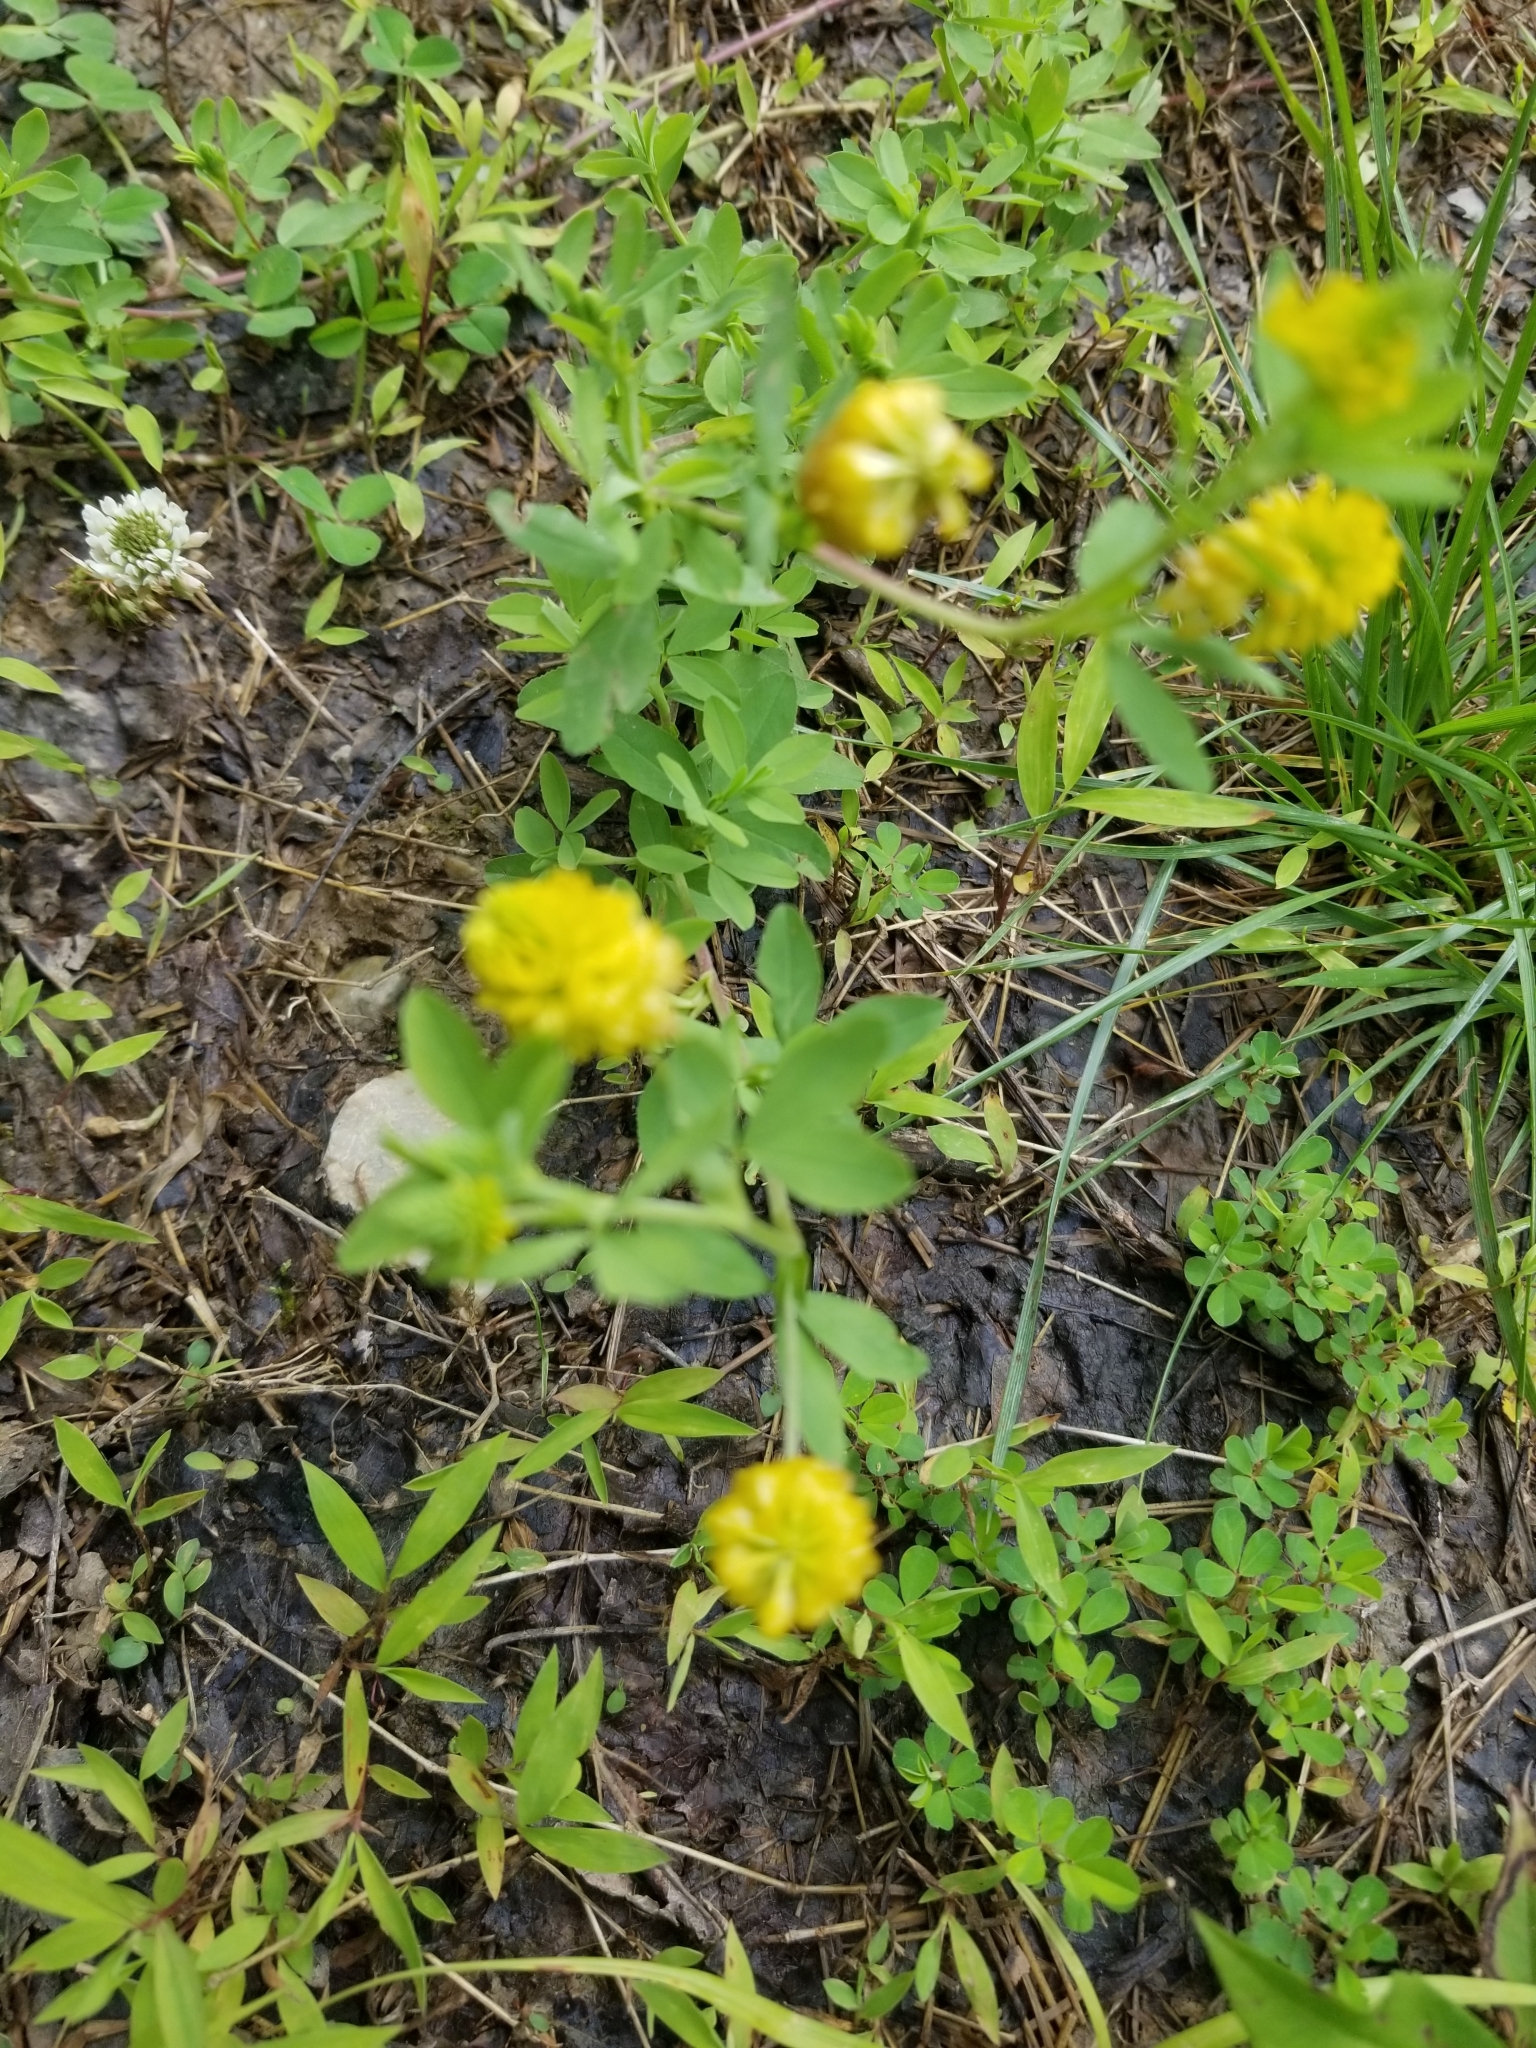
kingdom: Plantae
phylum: Tracheophyta
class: Magnoliopsida
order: Fabales
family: Fabaceae
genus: Trifolium
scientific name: Trifolium aureum
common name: Golden clover
